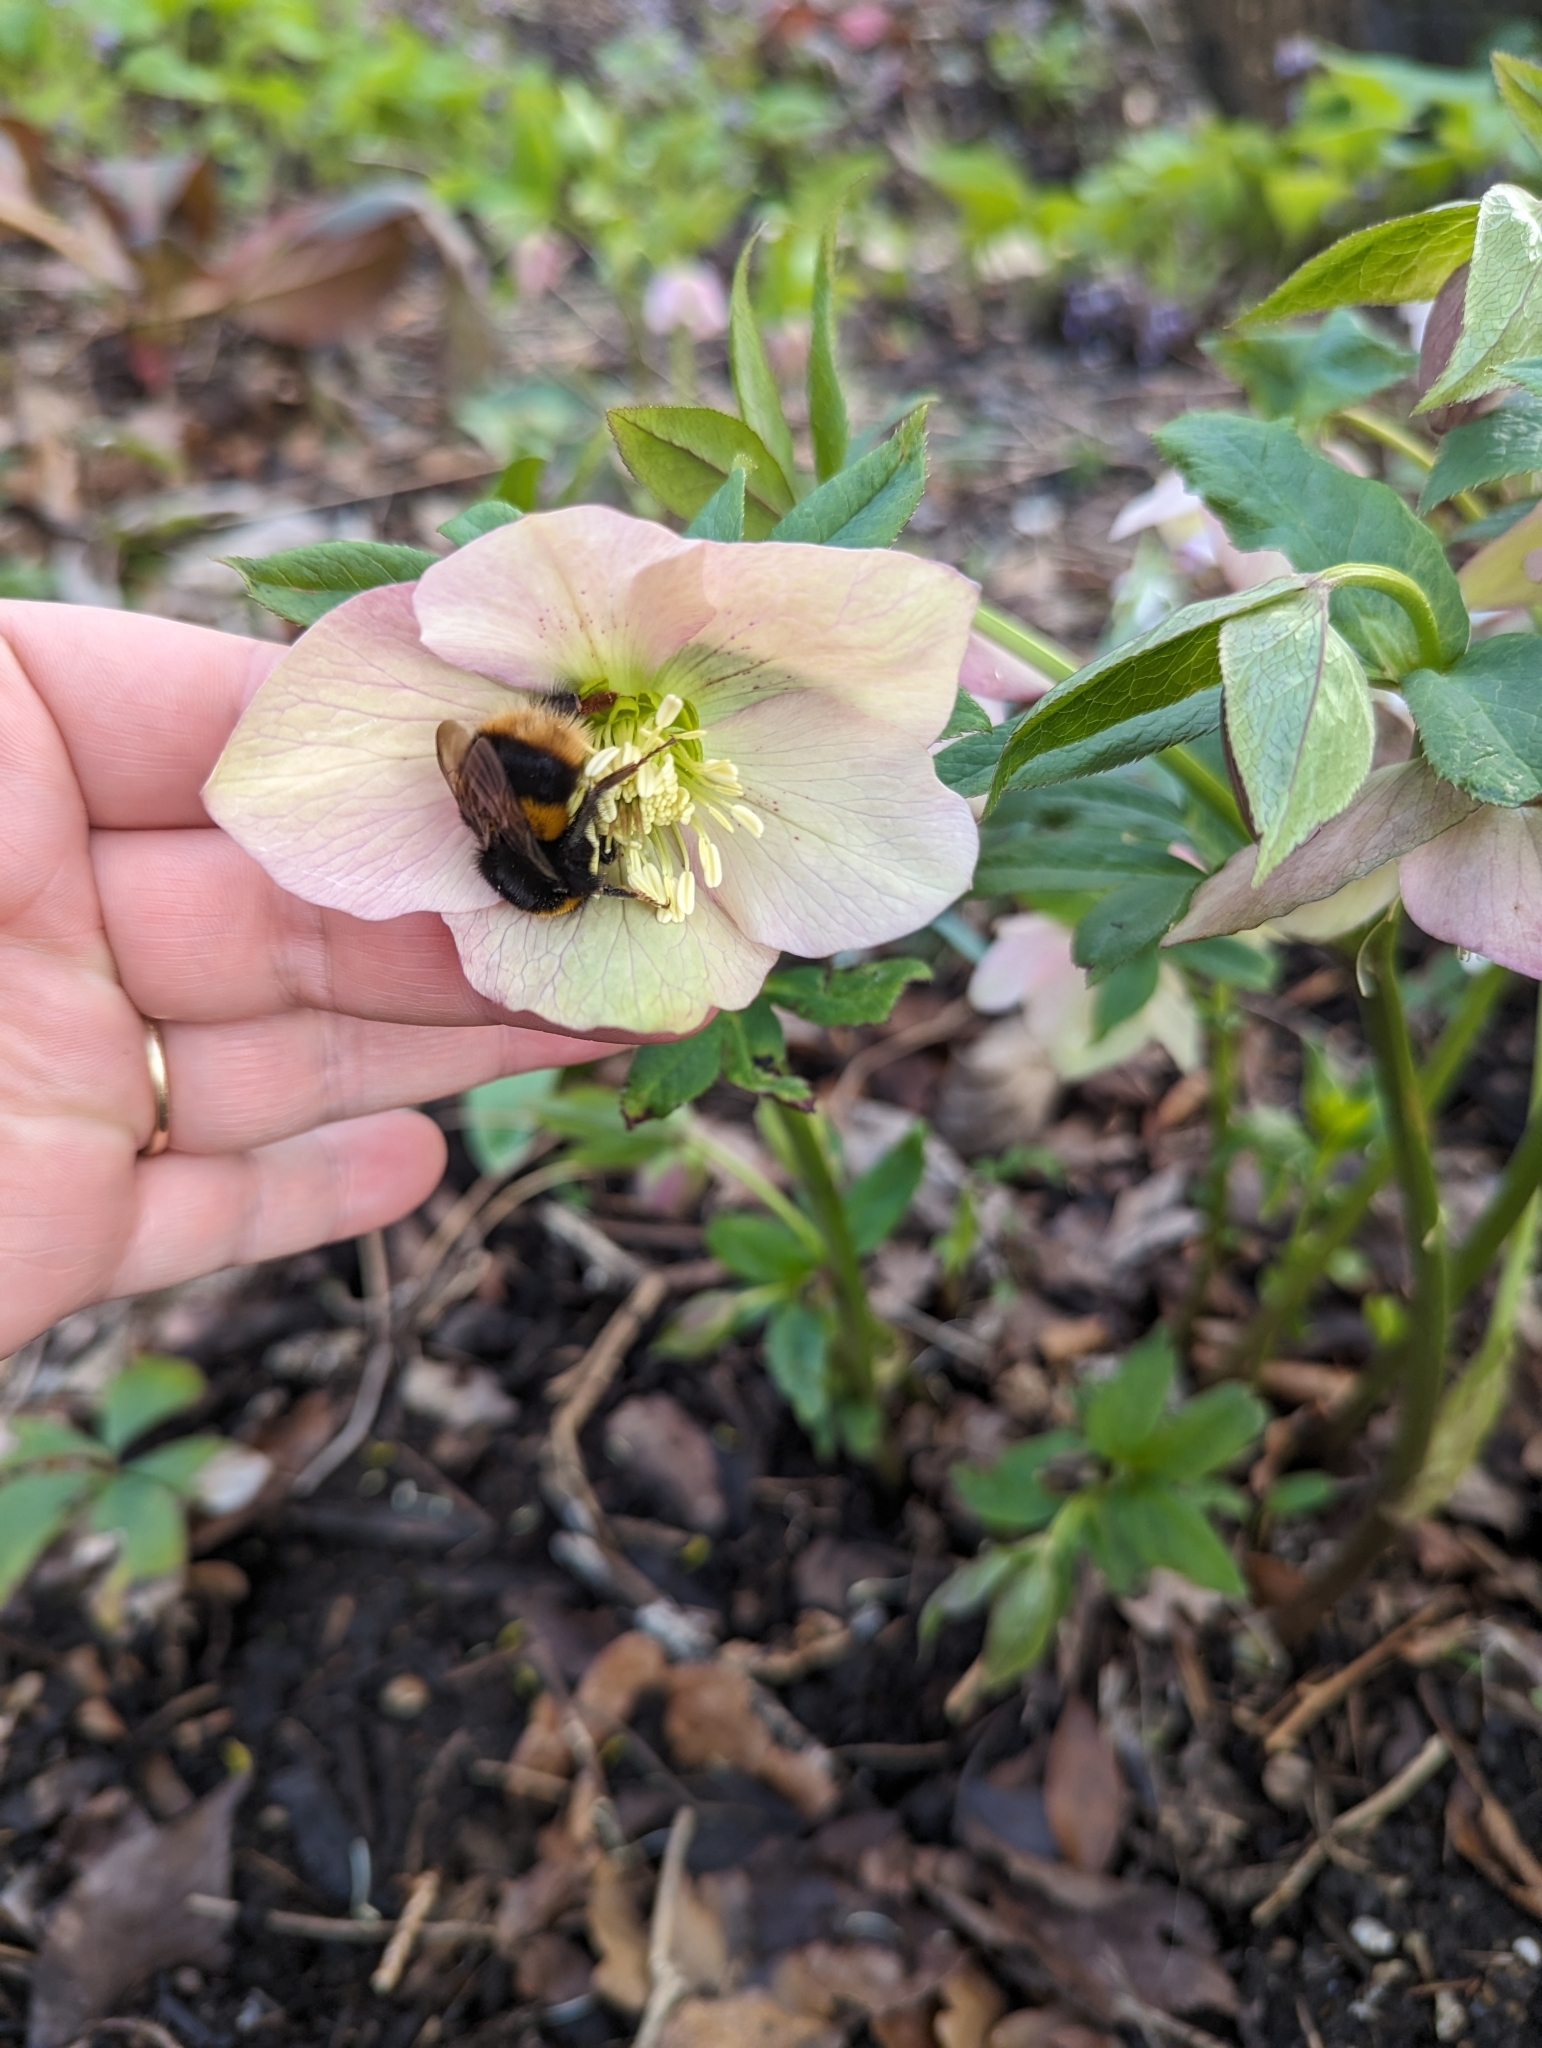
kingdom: Animalia
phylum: Arthropoda
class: Insecta
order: Hymenoptera
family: Apidae
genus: Bombus
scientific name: Bombus terrestris
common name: Buff-tailed bumblebee
